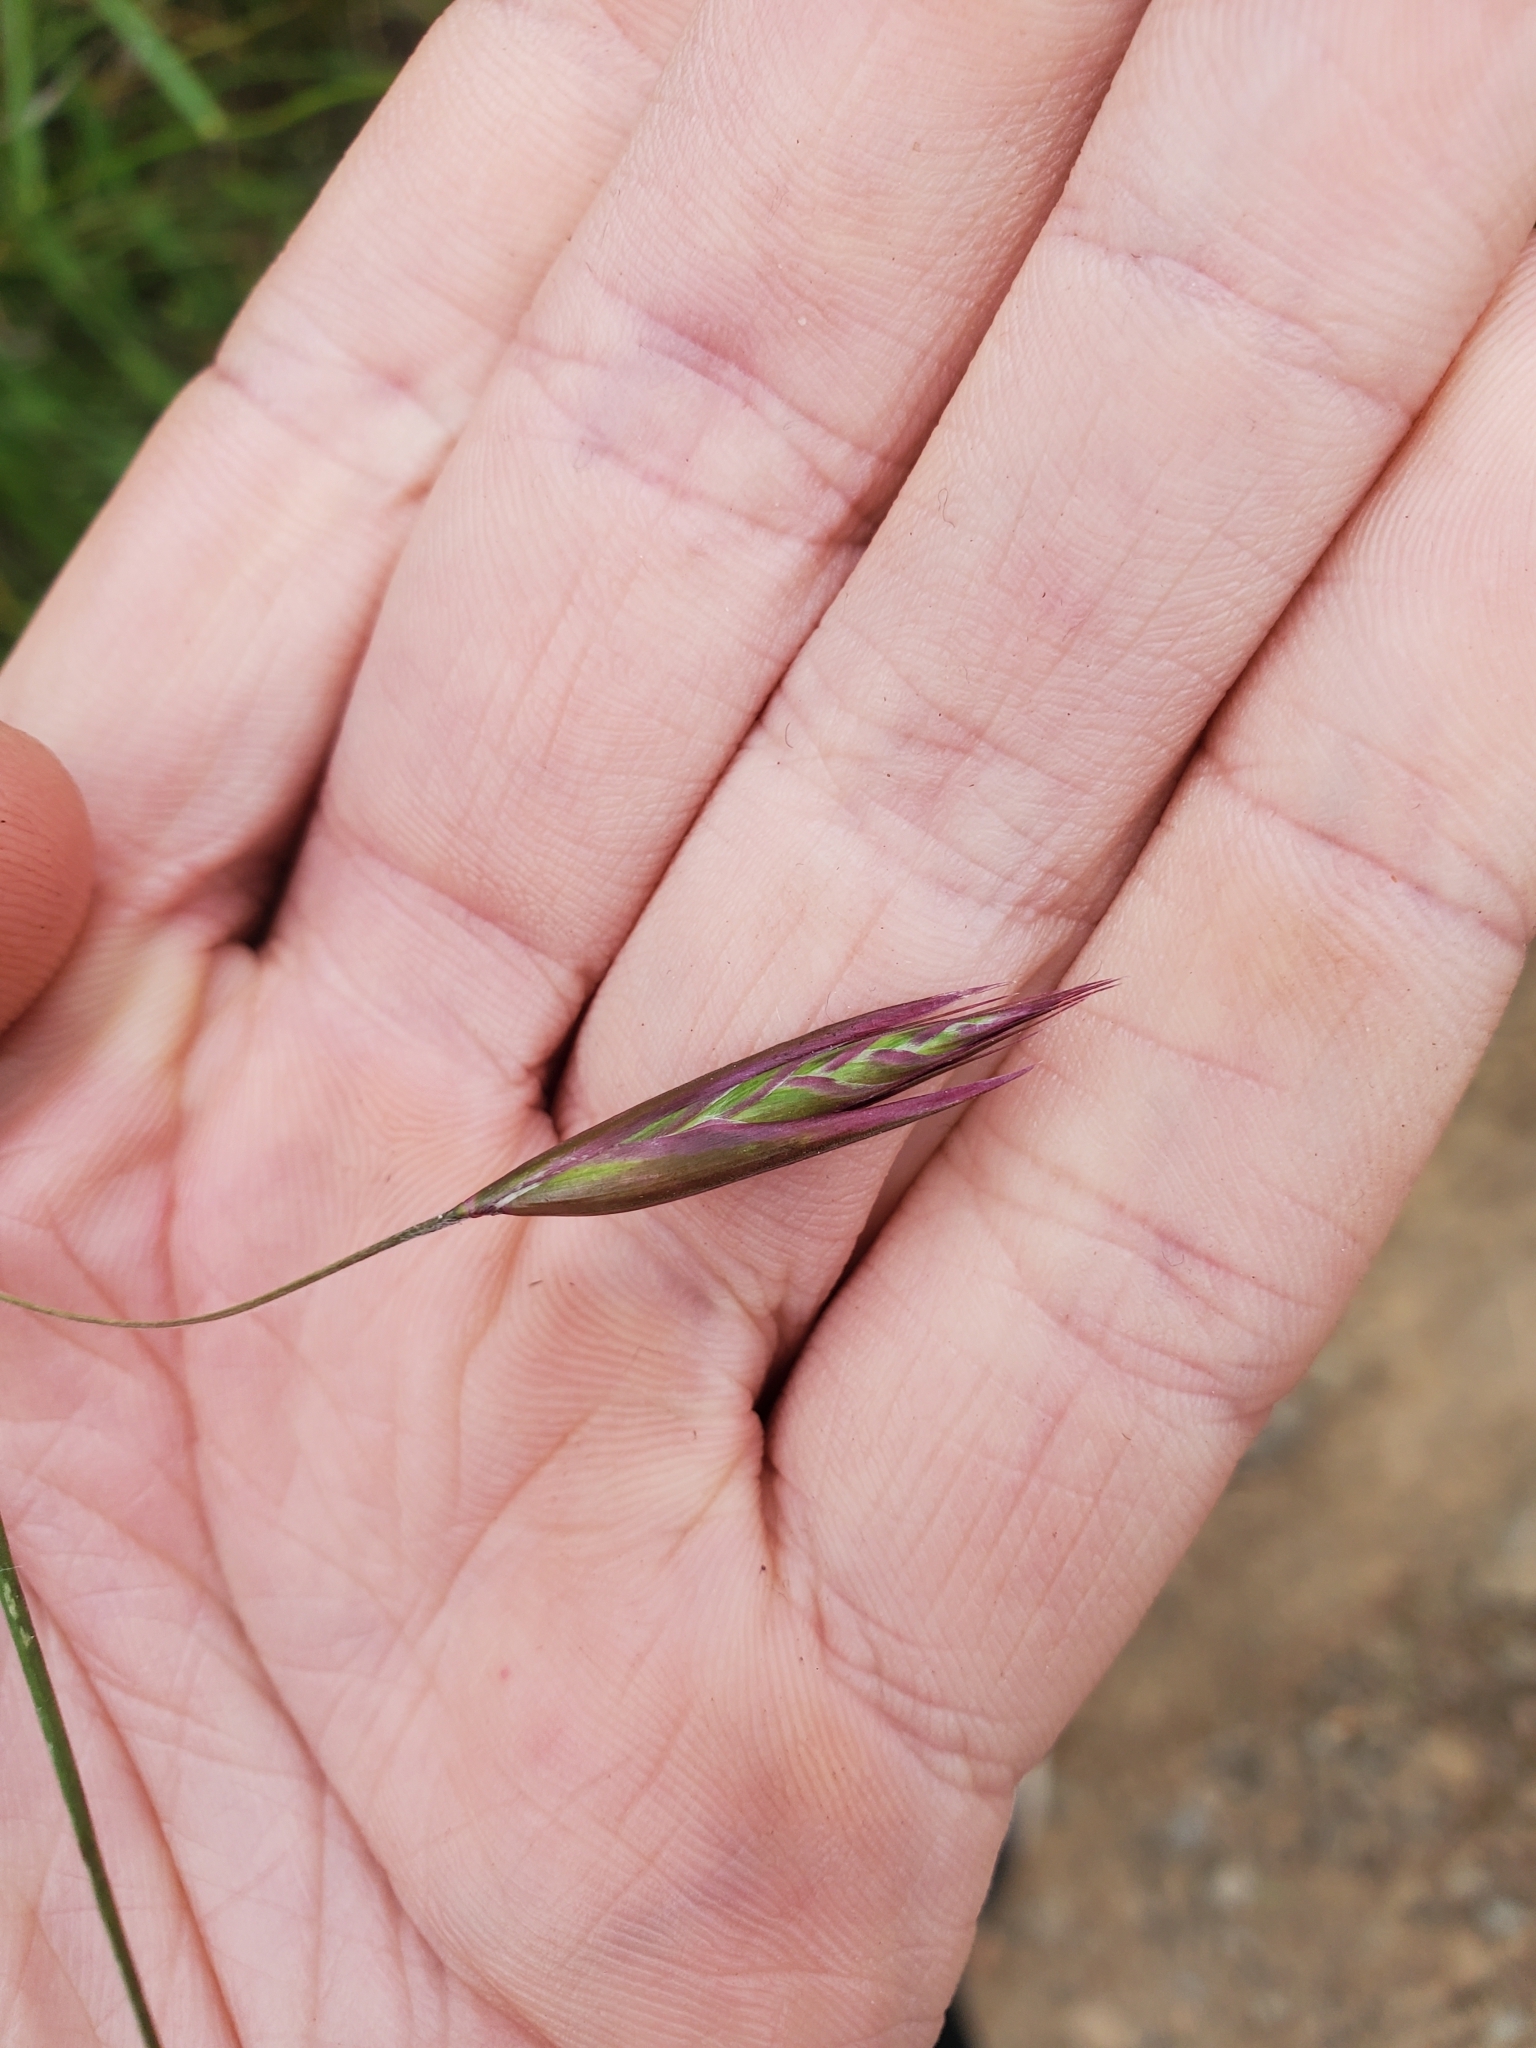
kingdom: Plantae
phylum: Tracheophyta
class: Liliopsida
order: Poales
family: Poaceae
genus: Danthonia
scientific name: Danthonia californica
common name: California oat grass
